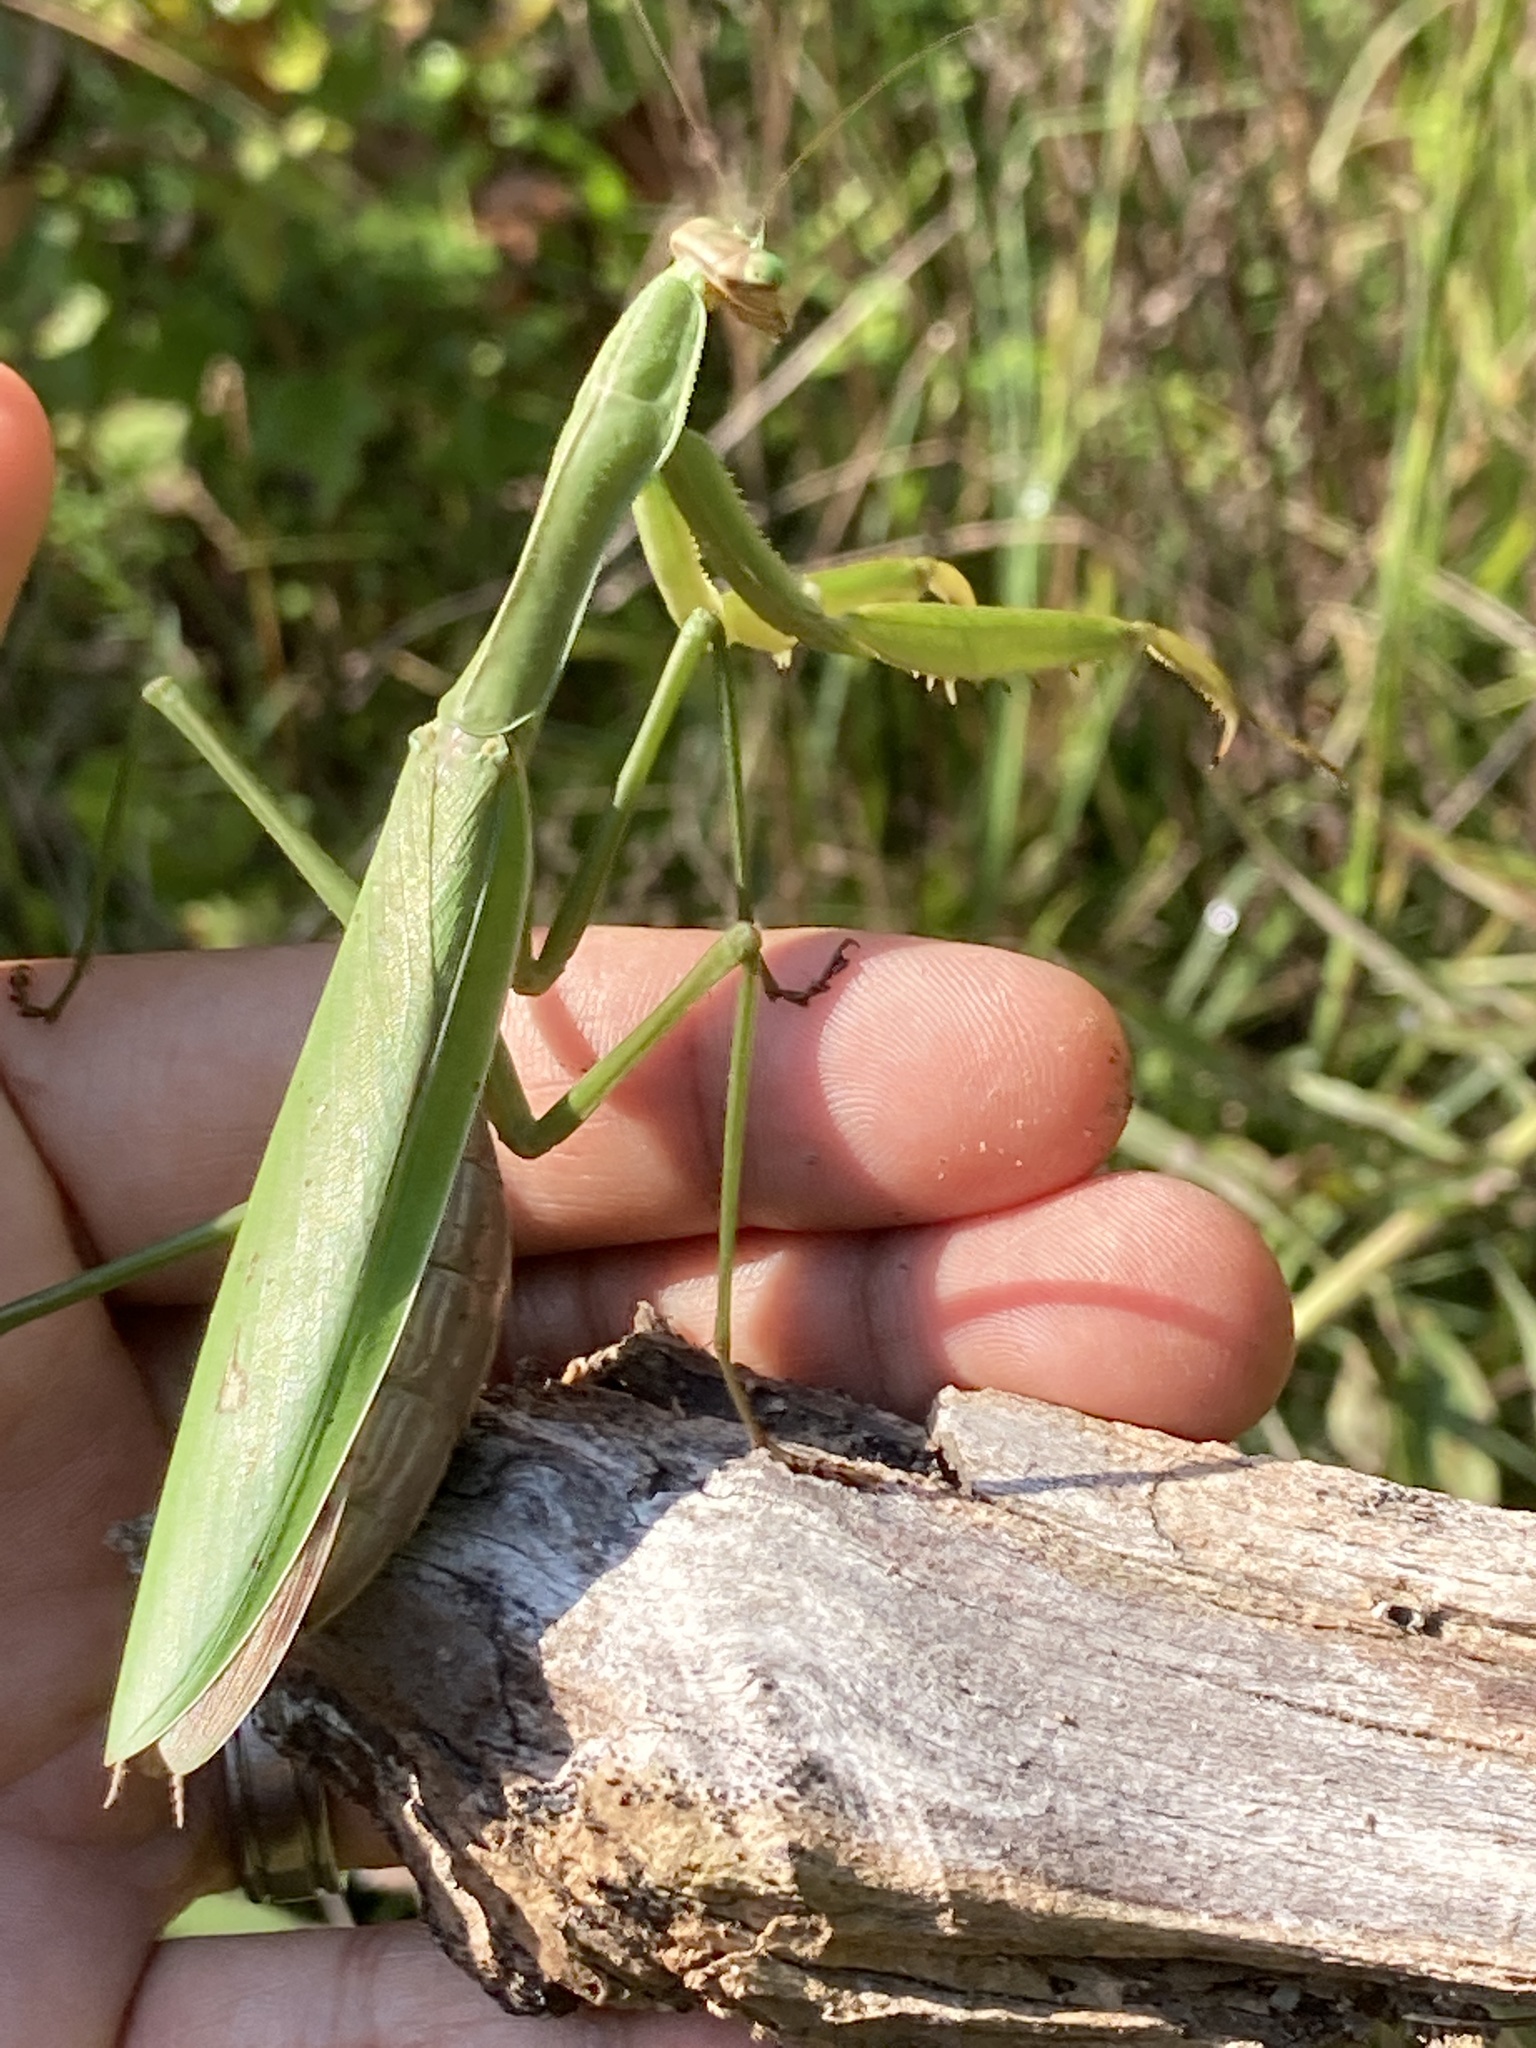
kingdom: Animalia
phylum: Arthropoda
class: Insecta
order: Mantodea
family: Mantidae
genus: Tenodera
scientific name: Tenodera sinensis
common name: Chinese mantis
